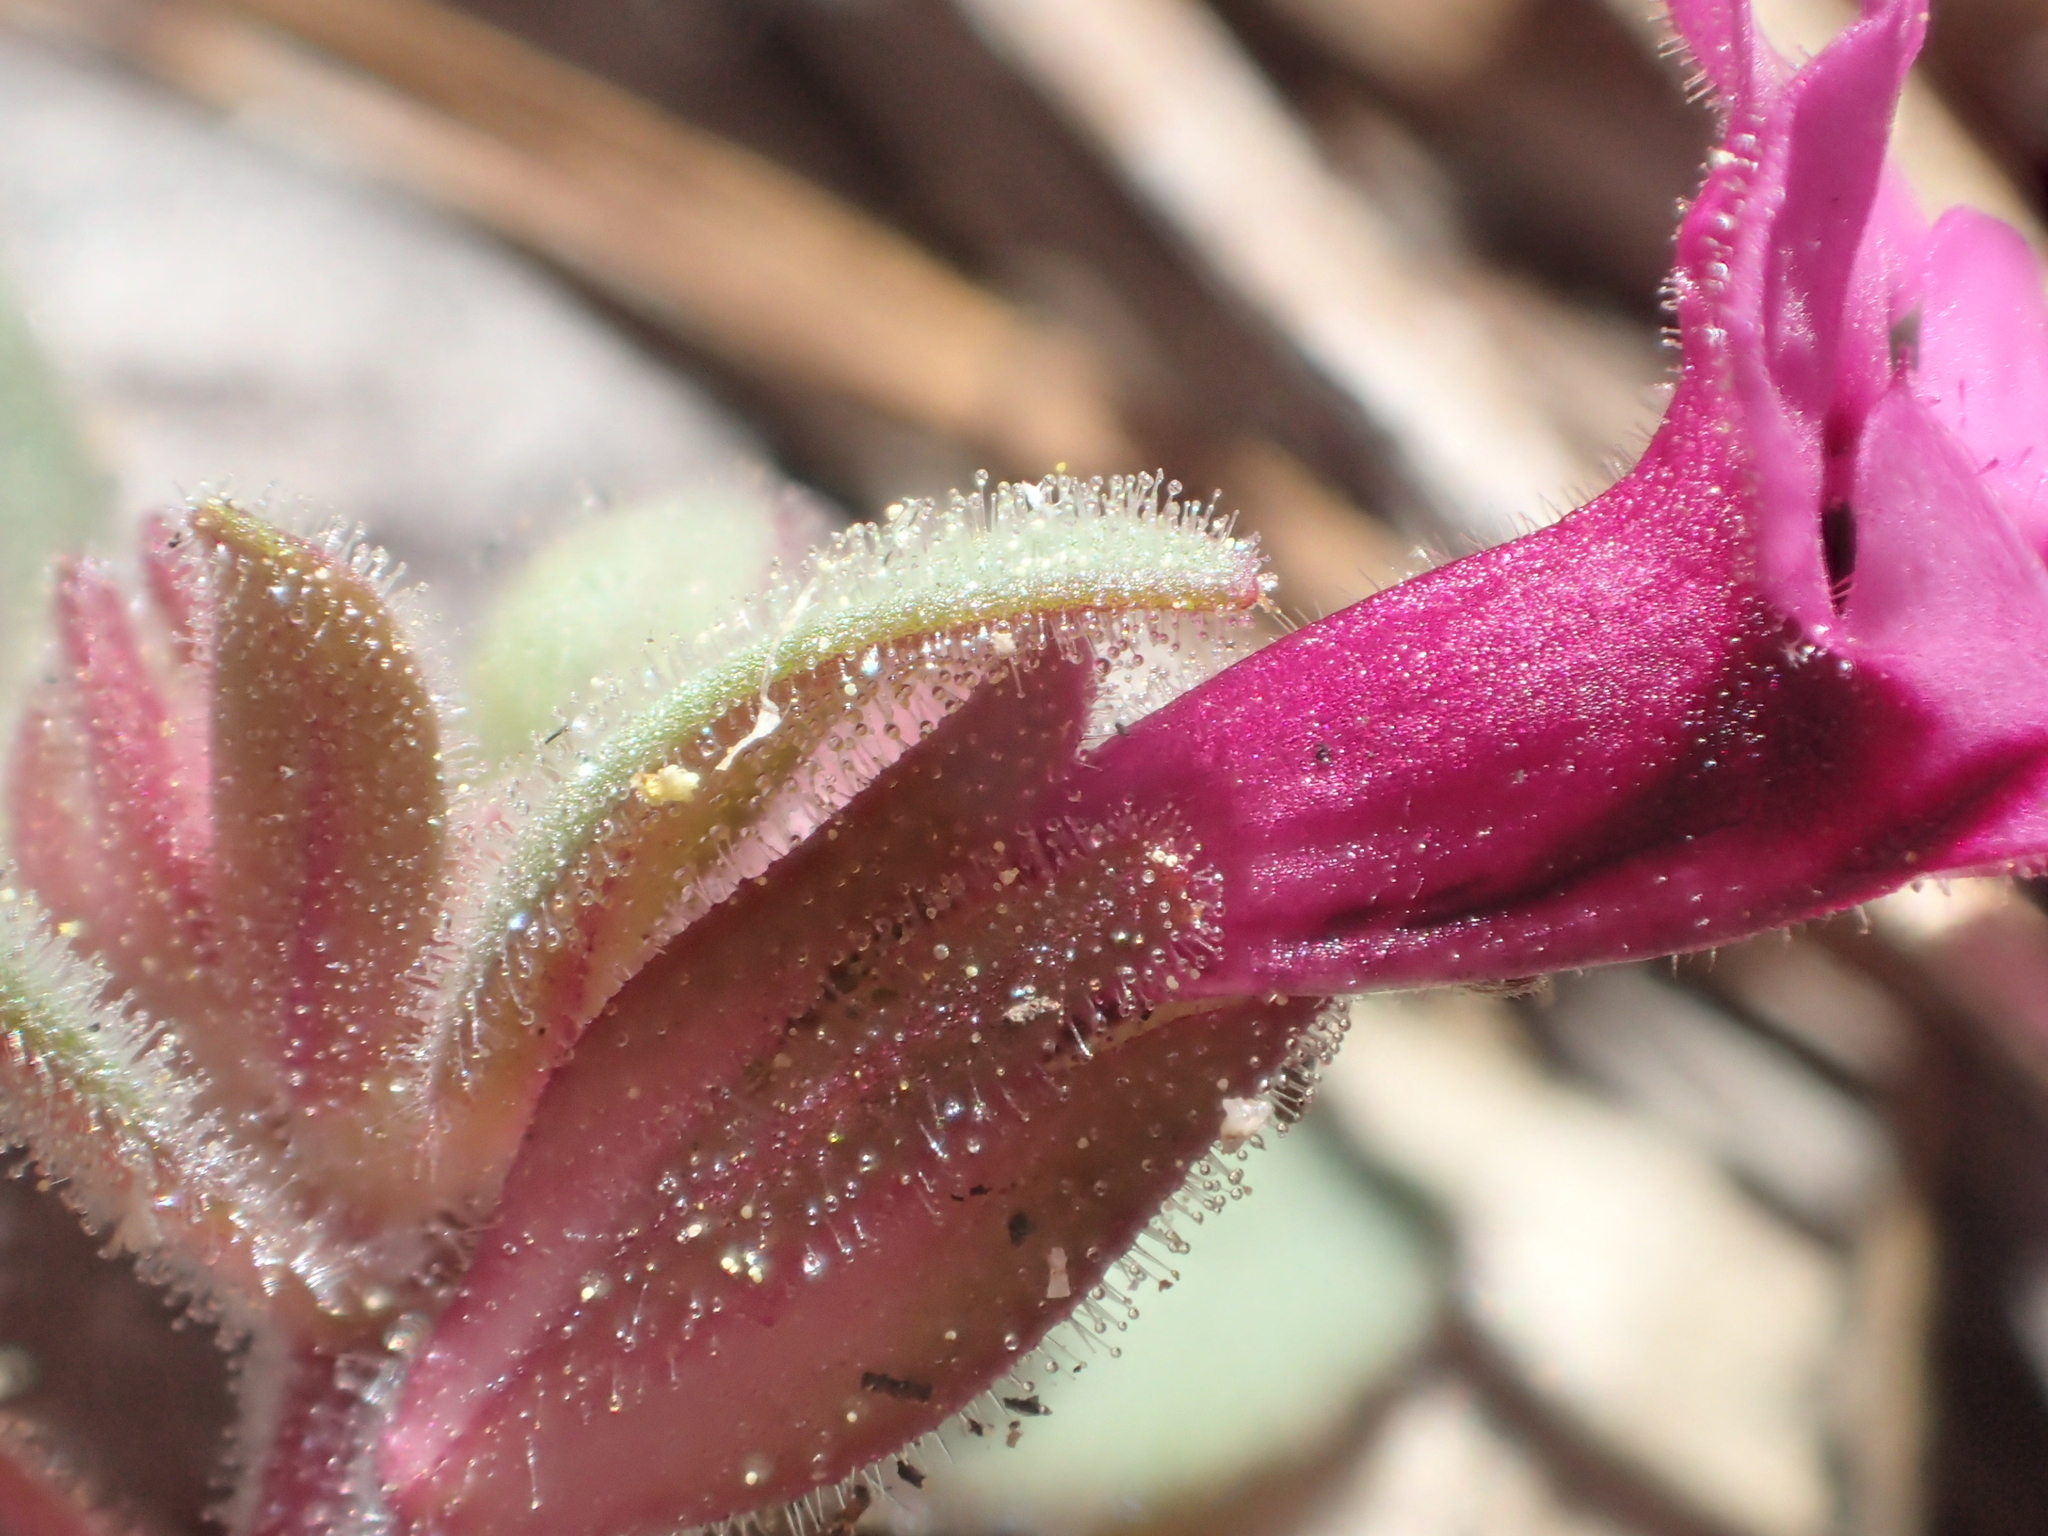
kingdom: Plantae
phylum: Tracheophyta
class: Magnoliopsida
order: Lamiales
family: Phrymaceae
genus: Diplacus
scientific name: Diplacus fremontii
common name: Fremont's monkey-flower
